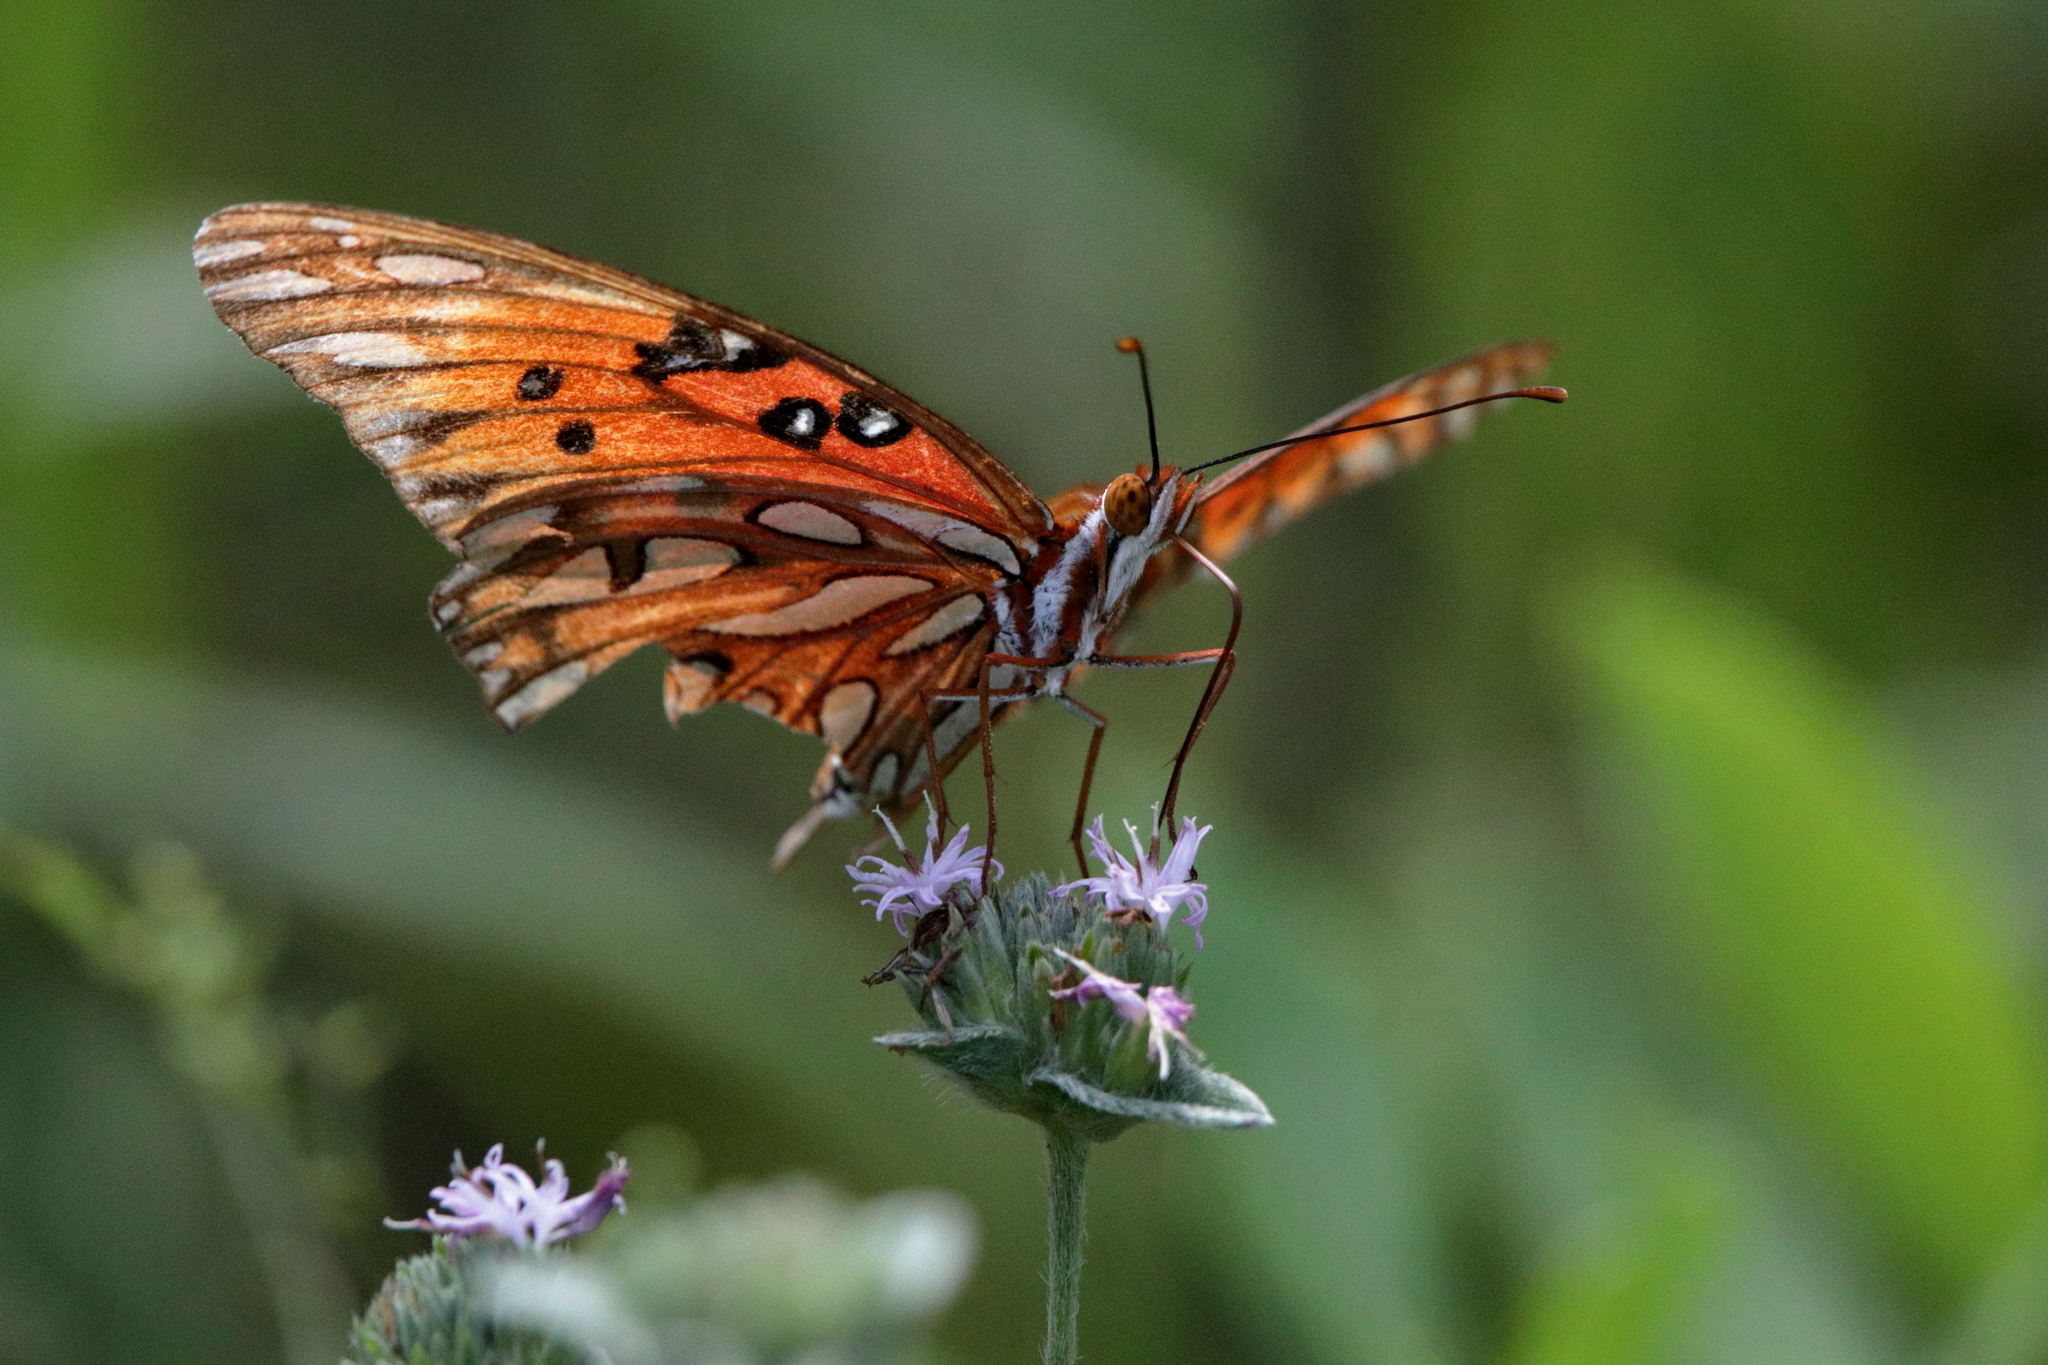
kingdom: Animalia
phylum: Arthropoda
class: Insecta
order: Lepidoptera
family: Nymphalidae
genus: Dione
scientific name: Dione vanillae
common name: Gulf fritillary
